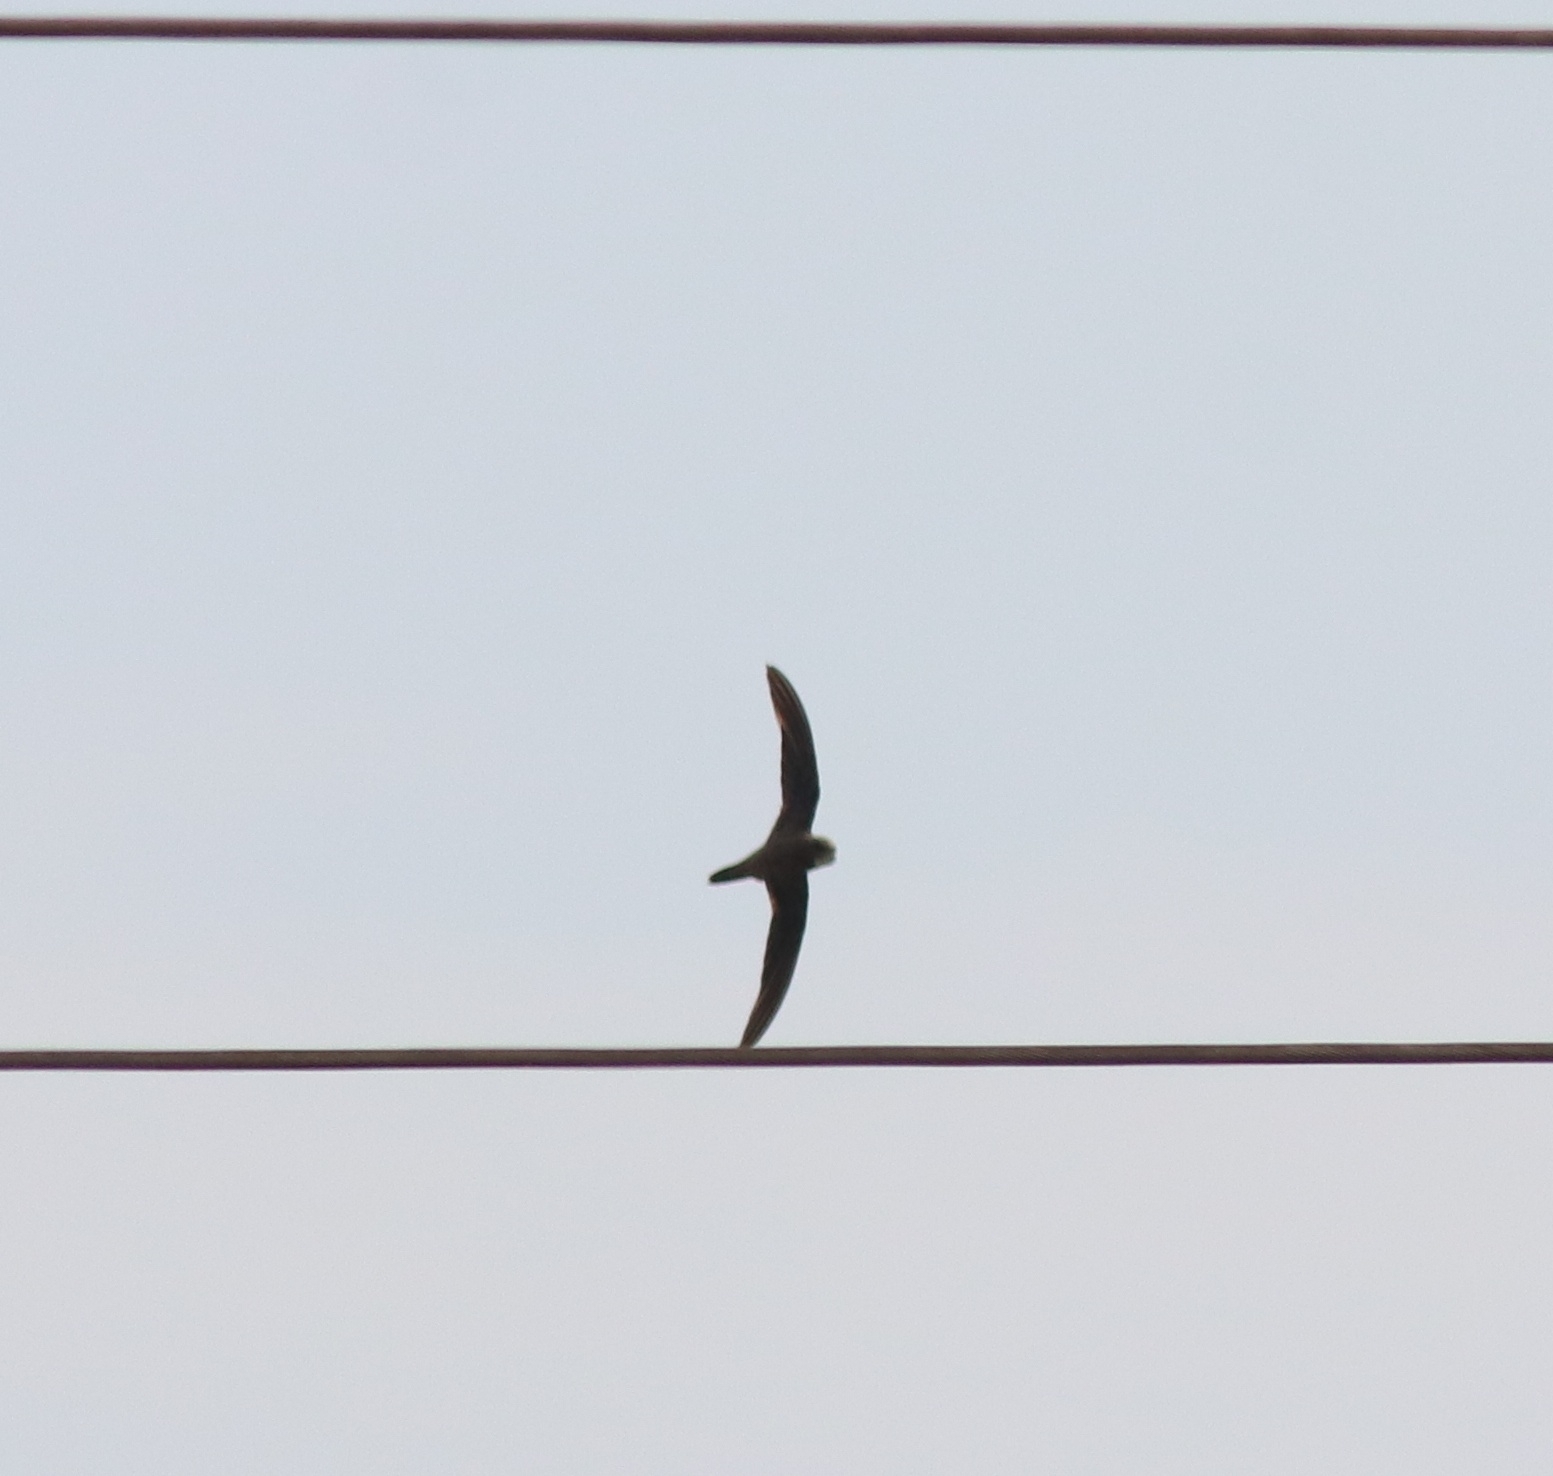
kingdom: Animalia
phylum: Chordata
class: Aves
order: Apodiformes
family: Apodidae
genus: Tachymarptis
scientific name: Tachymarptis melba
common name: Alpine swift
